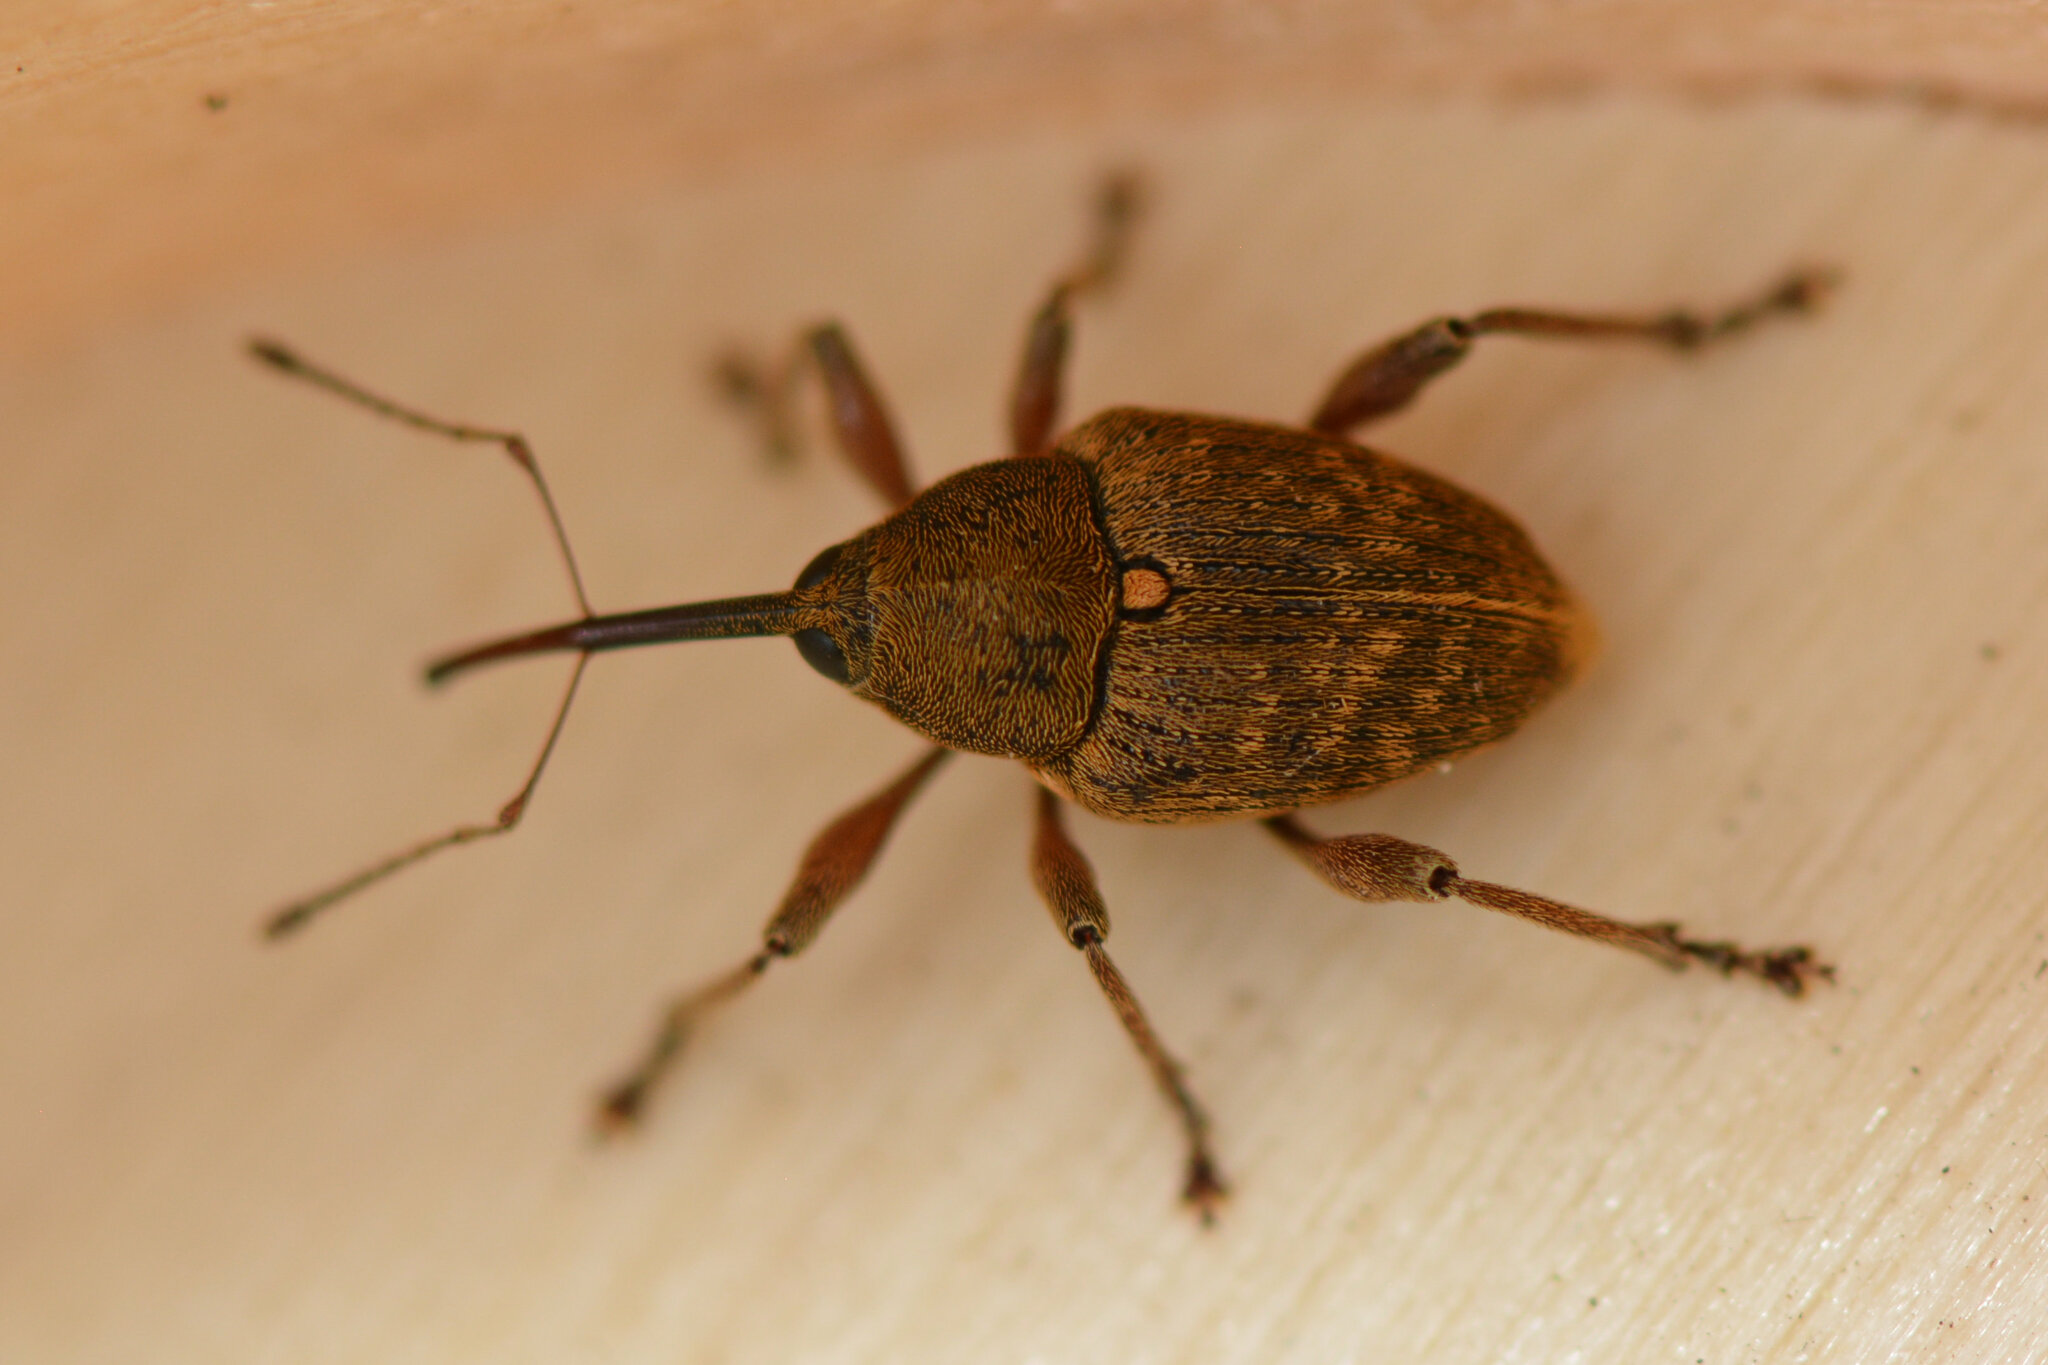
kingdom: Animalia
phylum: Arthropoda
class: Insecta
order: Coleoptera
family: Curculionidae
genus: Curculio
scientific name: Curculio nucum
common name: Nut weevil
